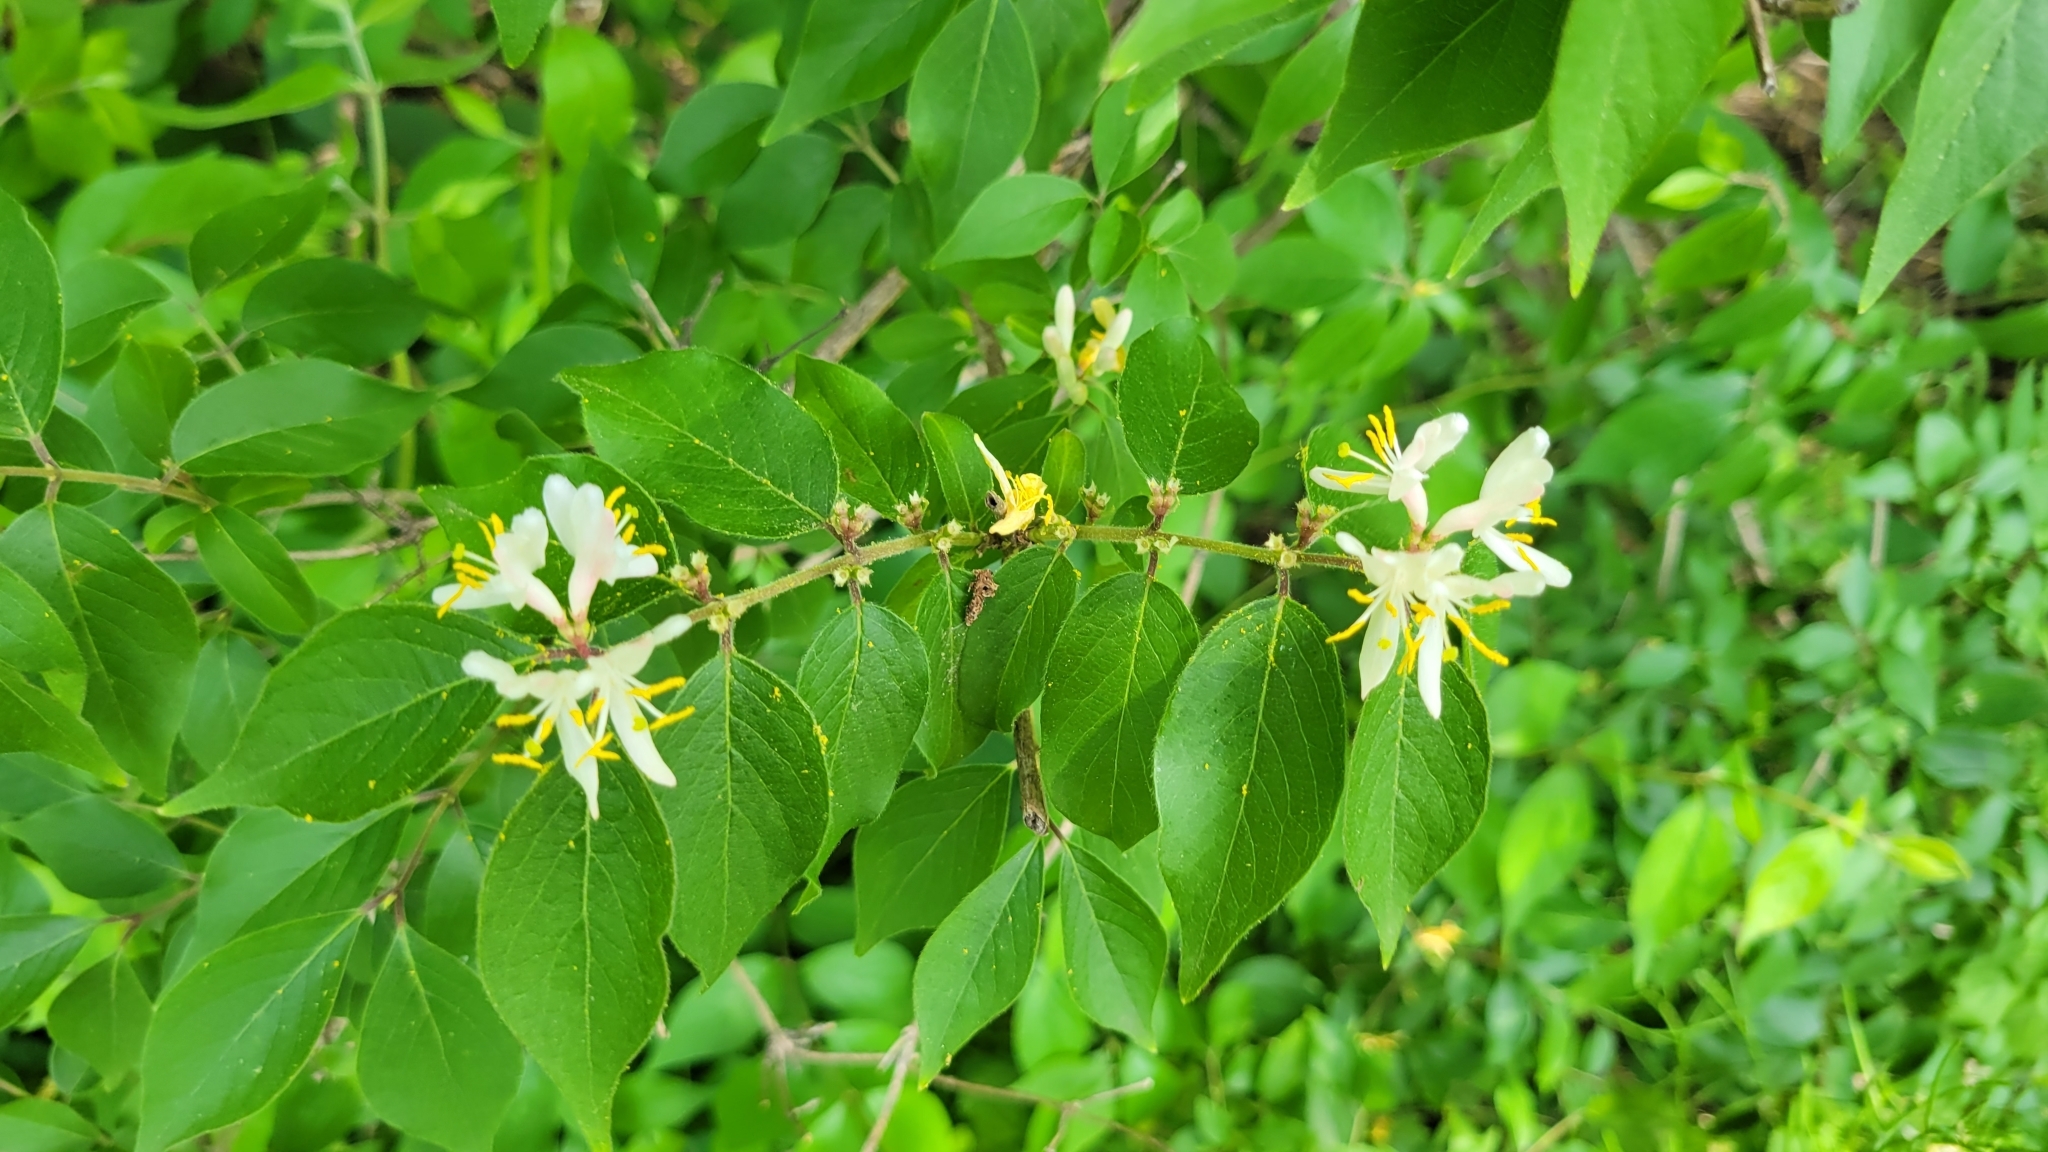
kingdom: Plantae
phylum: Tracheophyta
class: Magnoliopsida
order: Dipsacales
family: Caprifoliaceae
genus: Lonicera
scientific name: Lonicera maackii
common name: Amur honeysuckle
